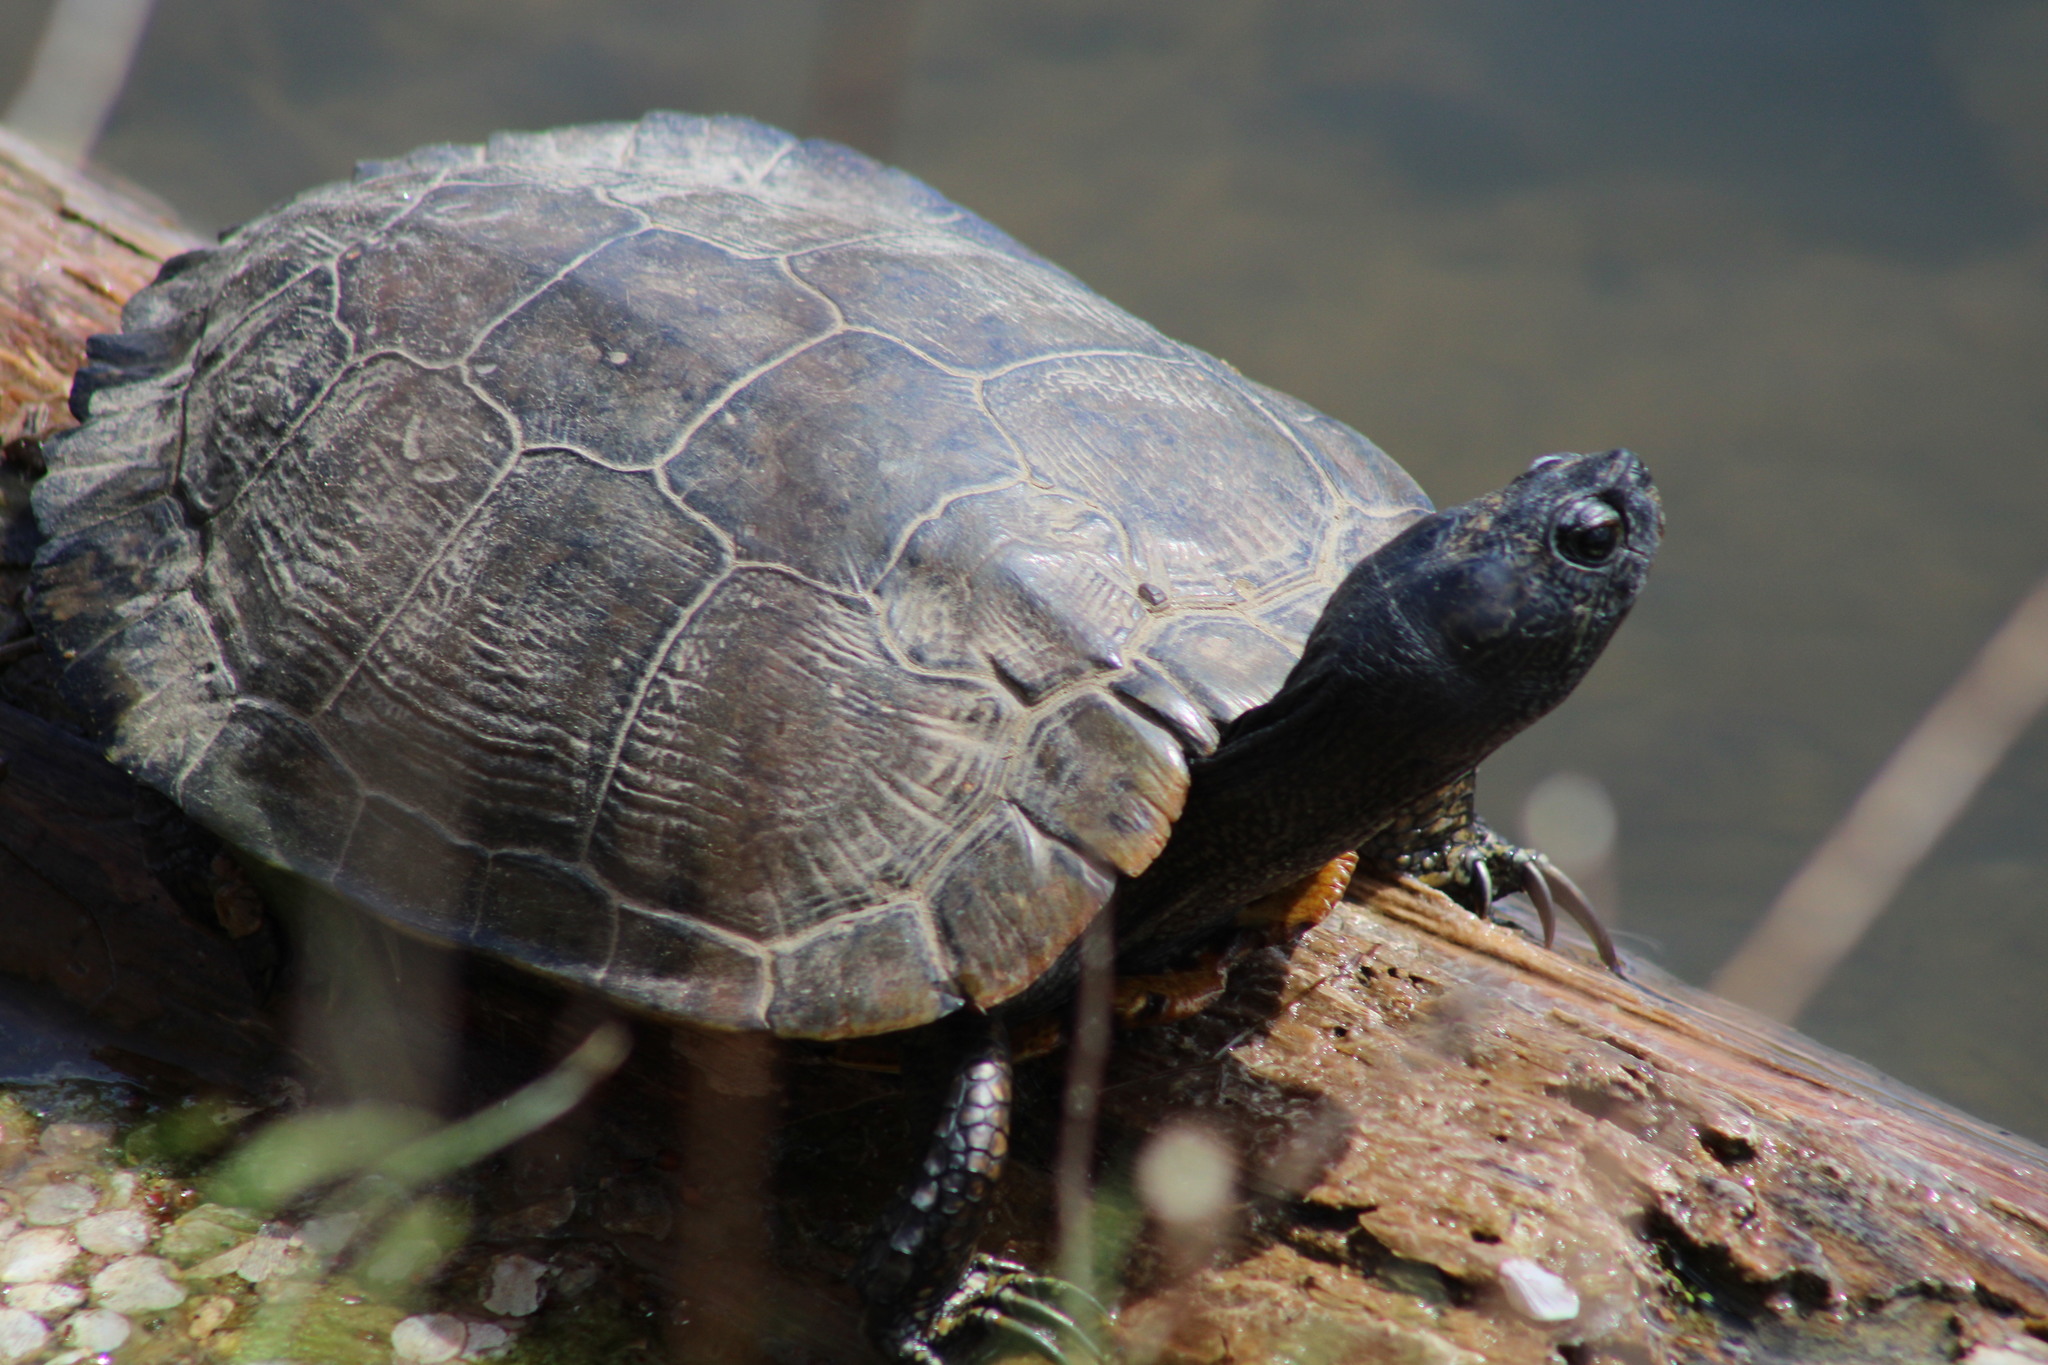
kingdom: Animalia
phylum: Chordata
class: Testudines
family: Emydidae
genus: Trachemys
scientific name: Trachemys scripta
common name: Slider
